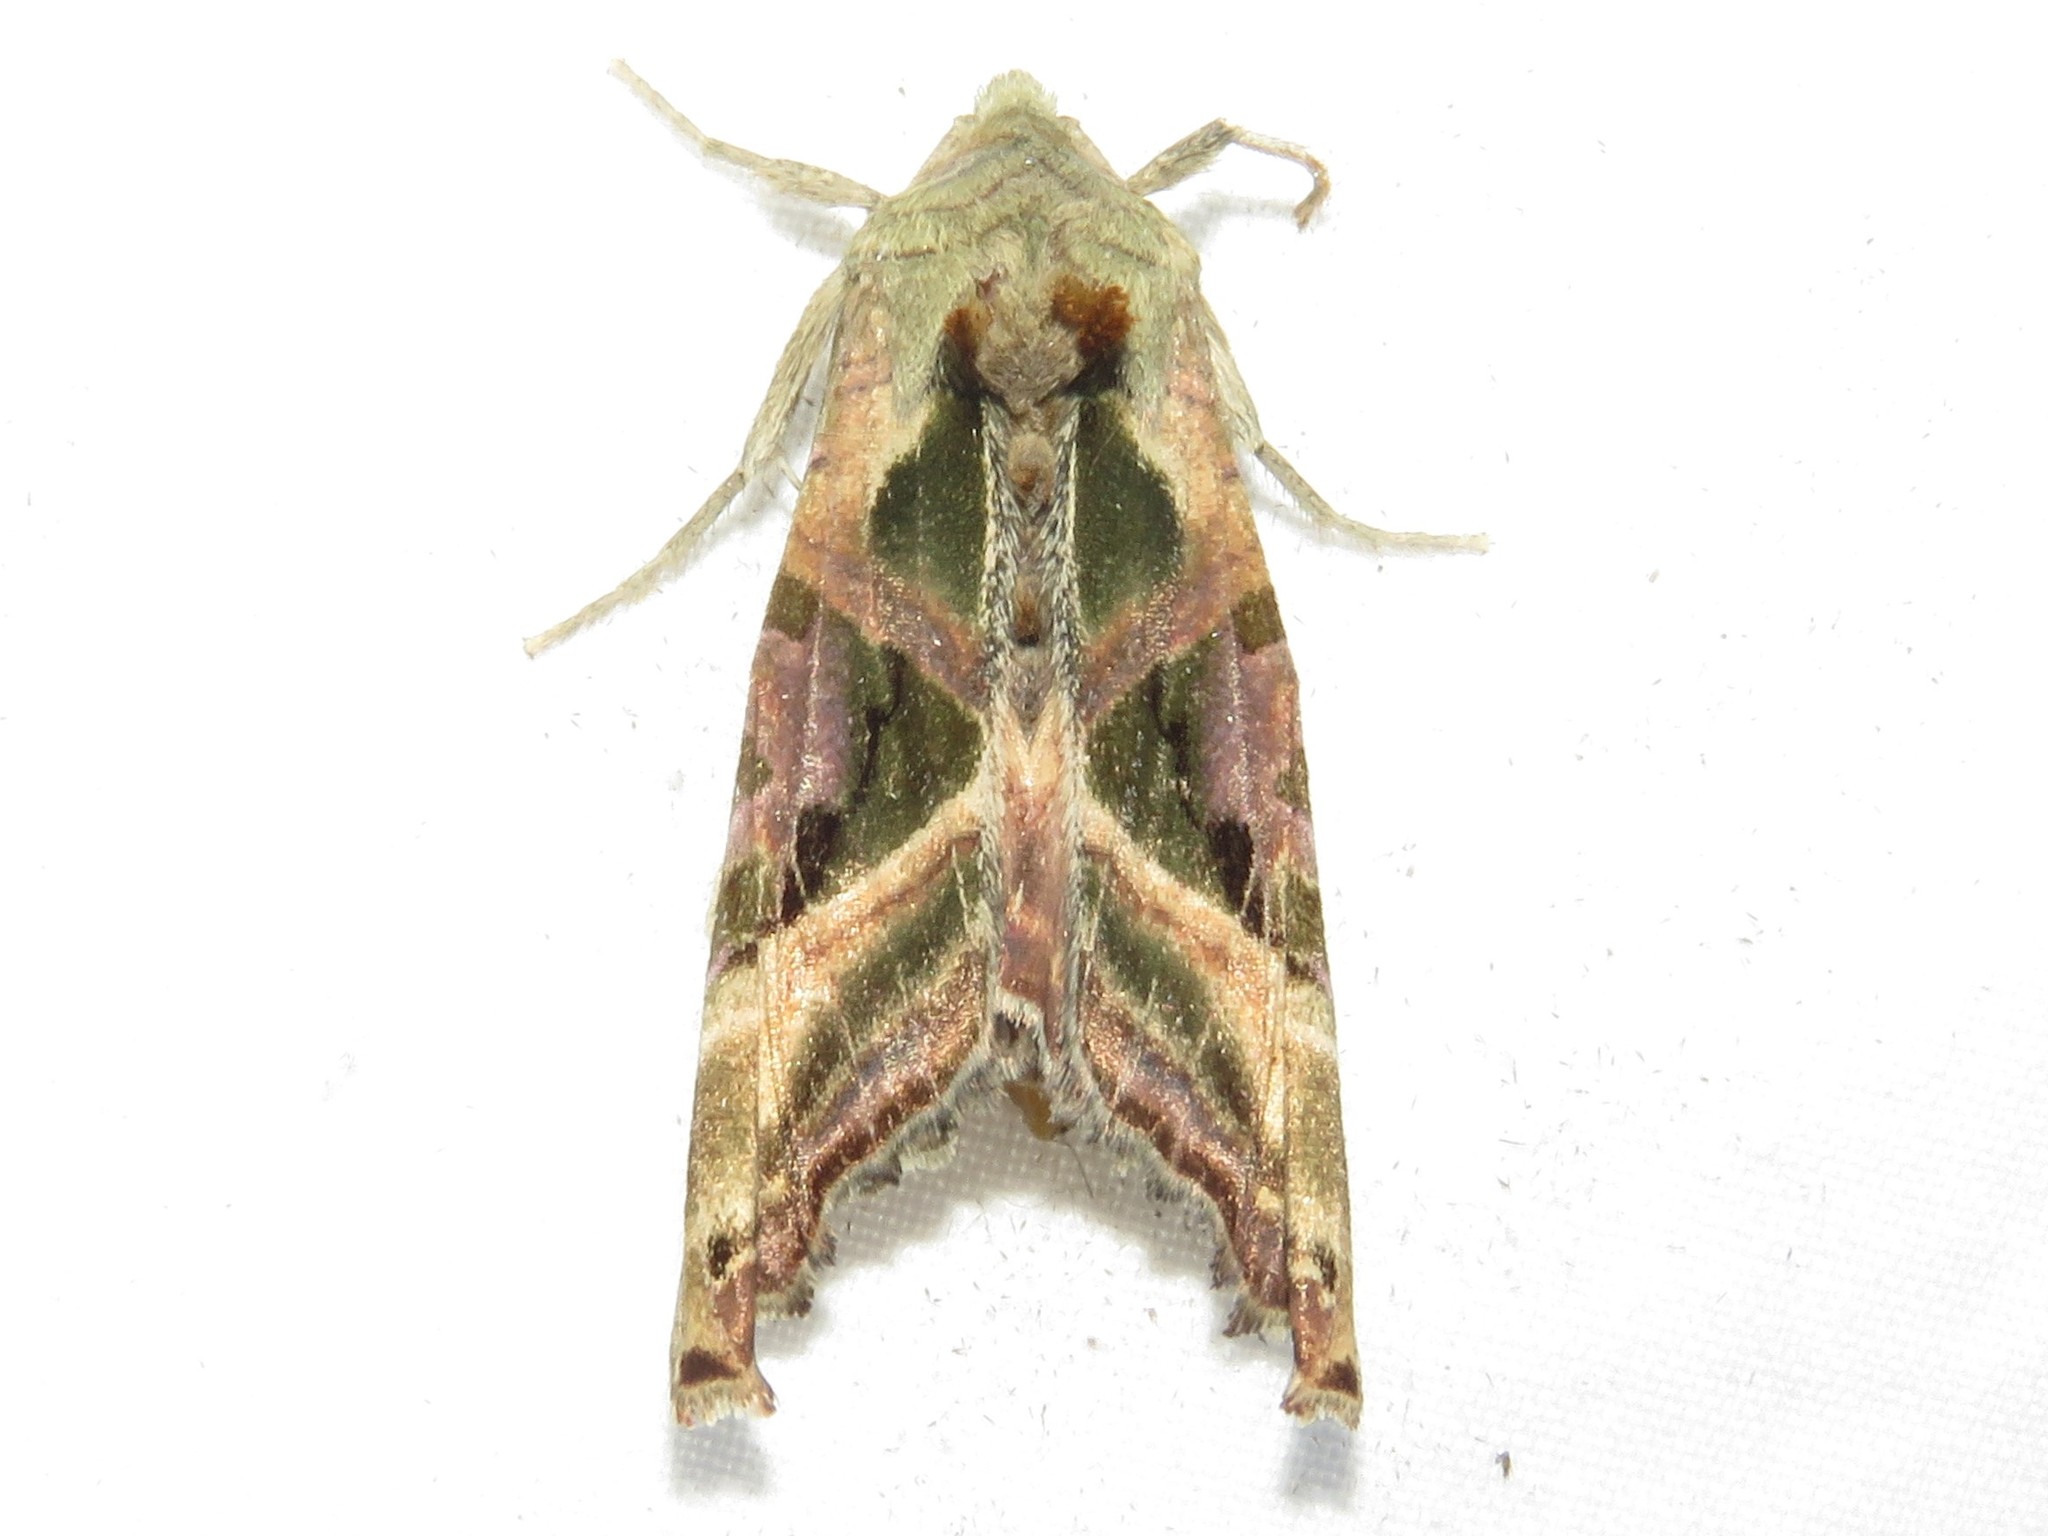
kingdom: Animalia
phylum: Arthropoda
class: Insecta
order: Lepidoptera
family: Noctuidae
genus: Phlogophora
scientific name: Phlogophora iris
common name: Olive angle shades
